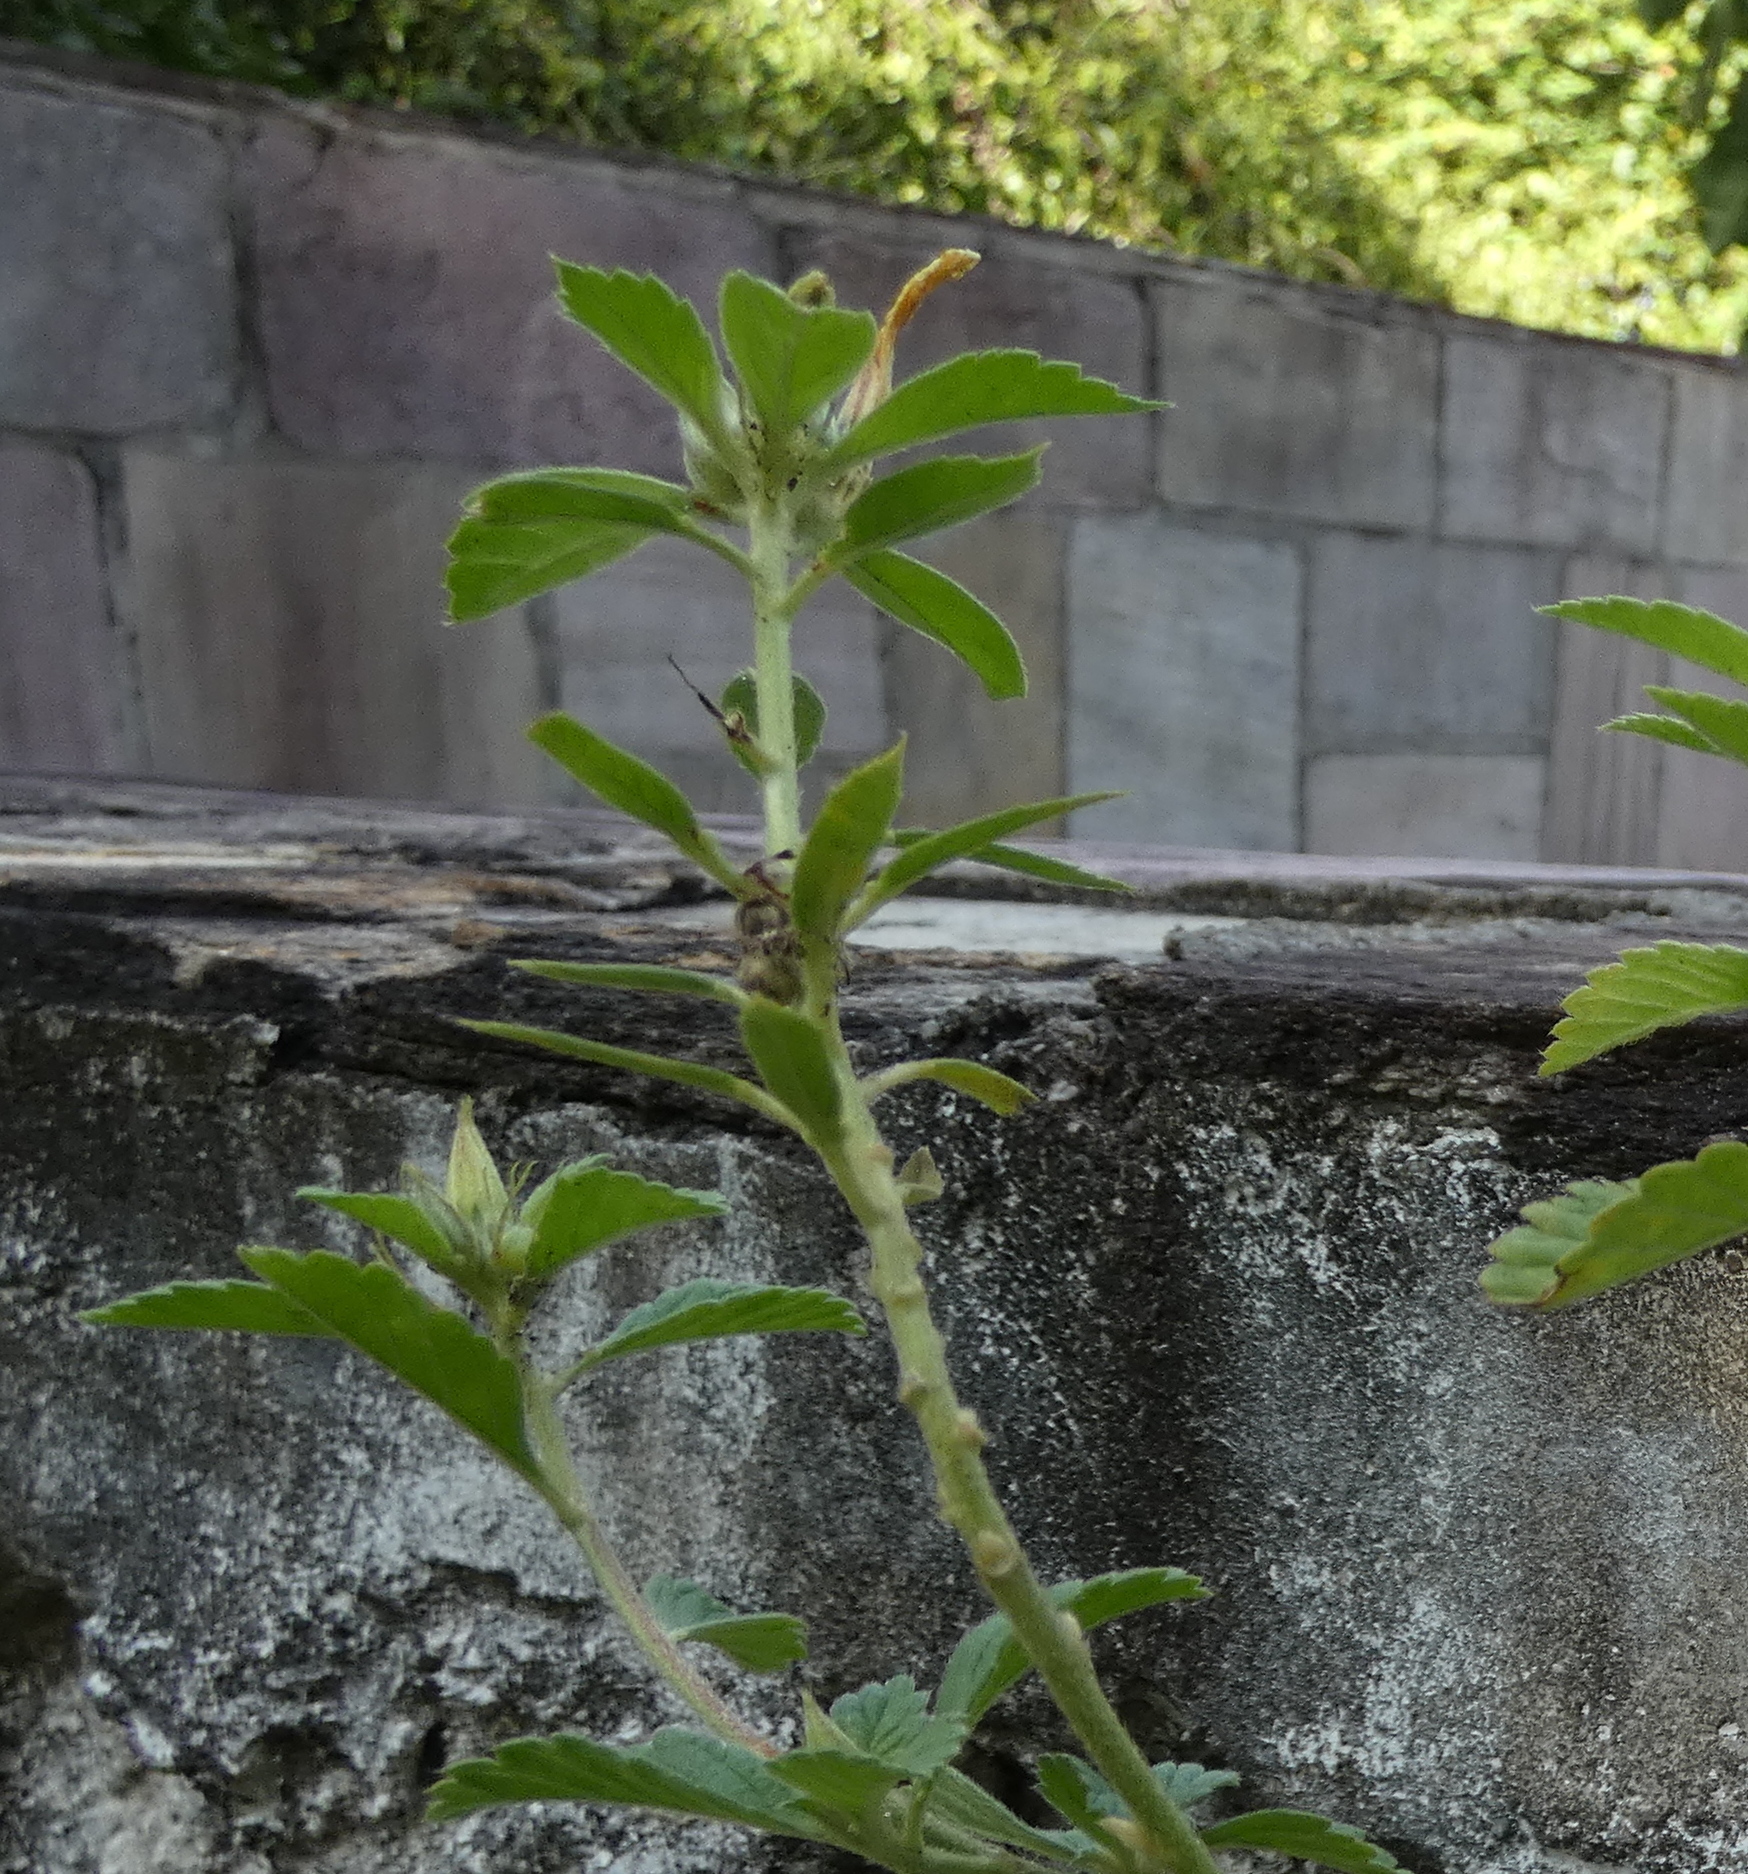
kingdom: Plantae
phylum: Tracheophyta
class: Magnoliopsida
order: Malpighiales
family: Turneraceae
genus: Turnera
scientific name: Turnera subulata
